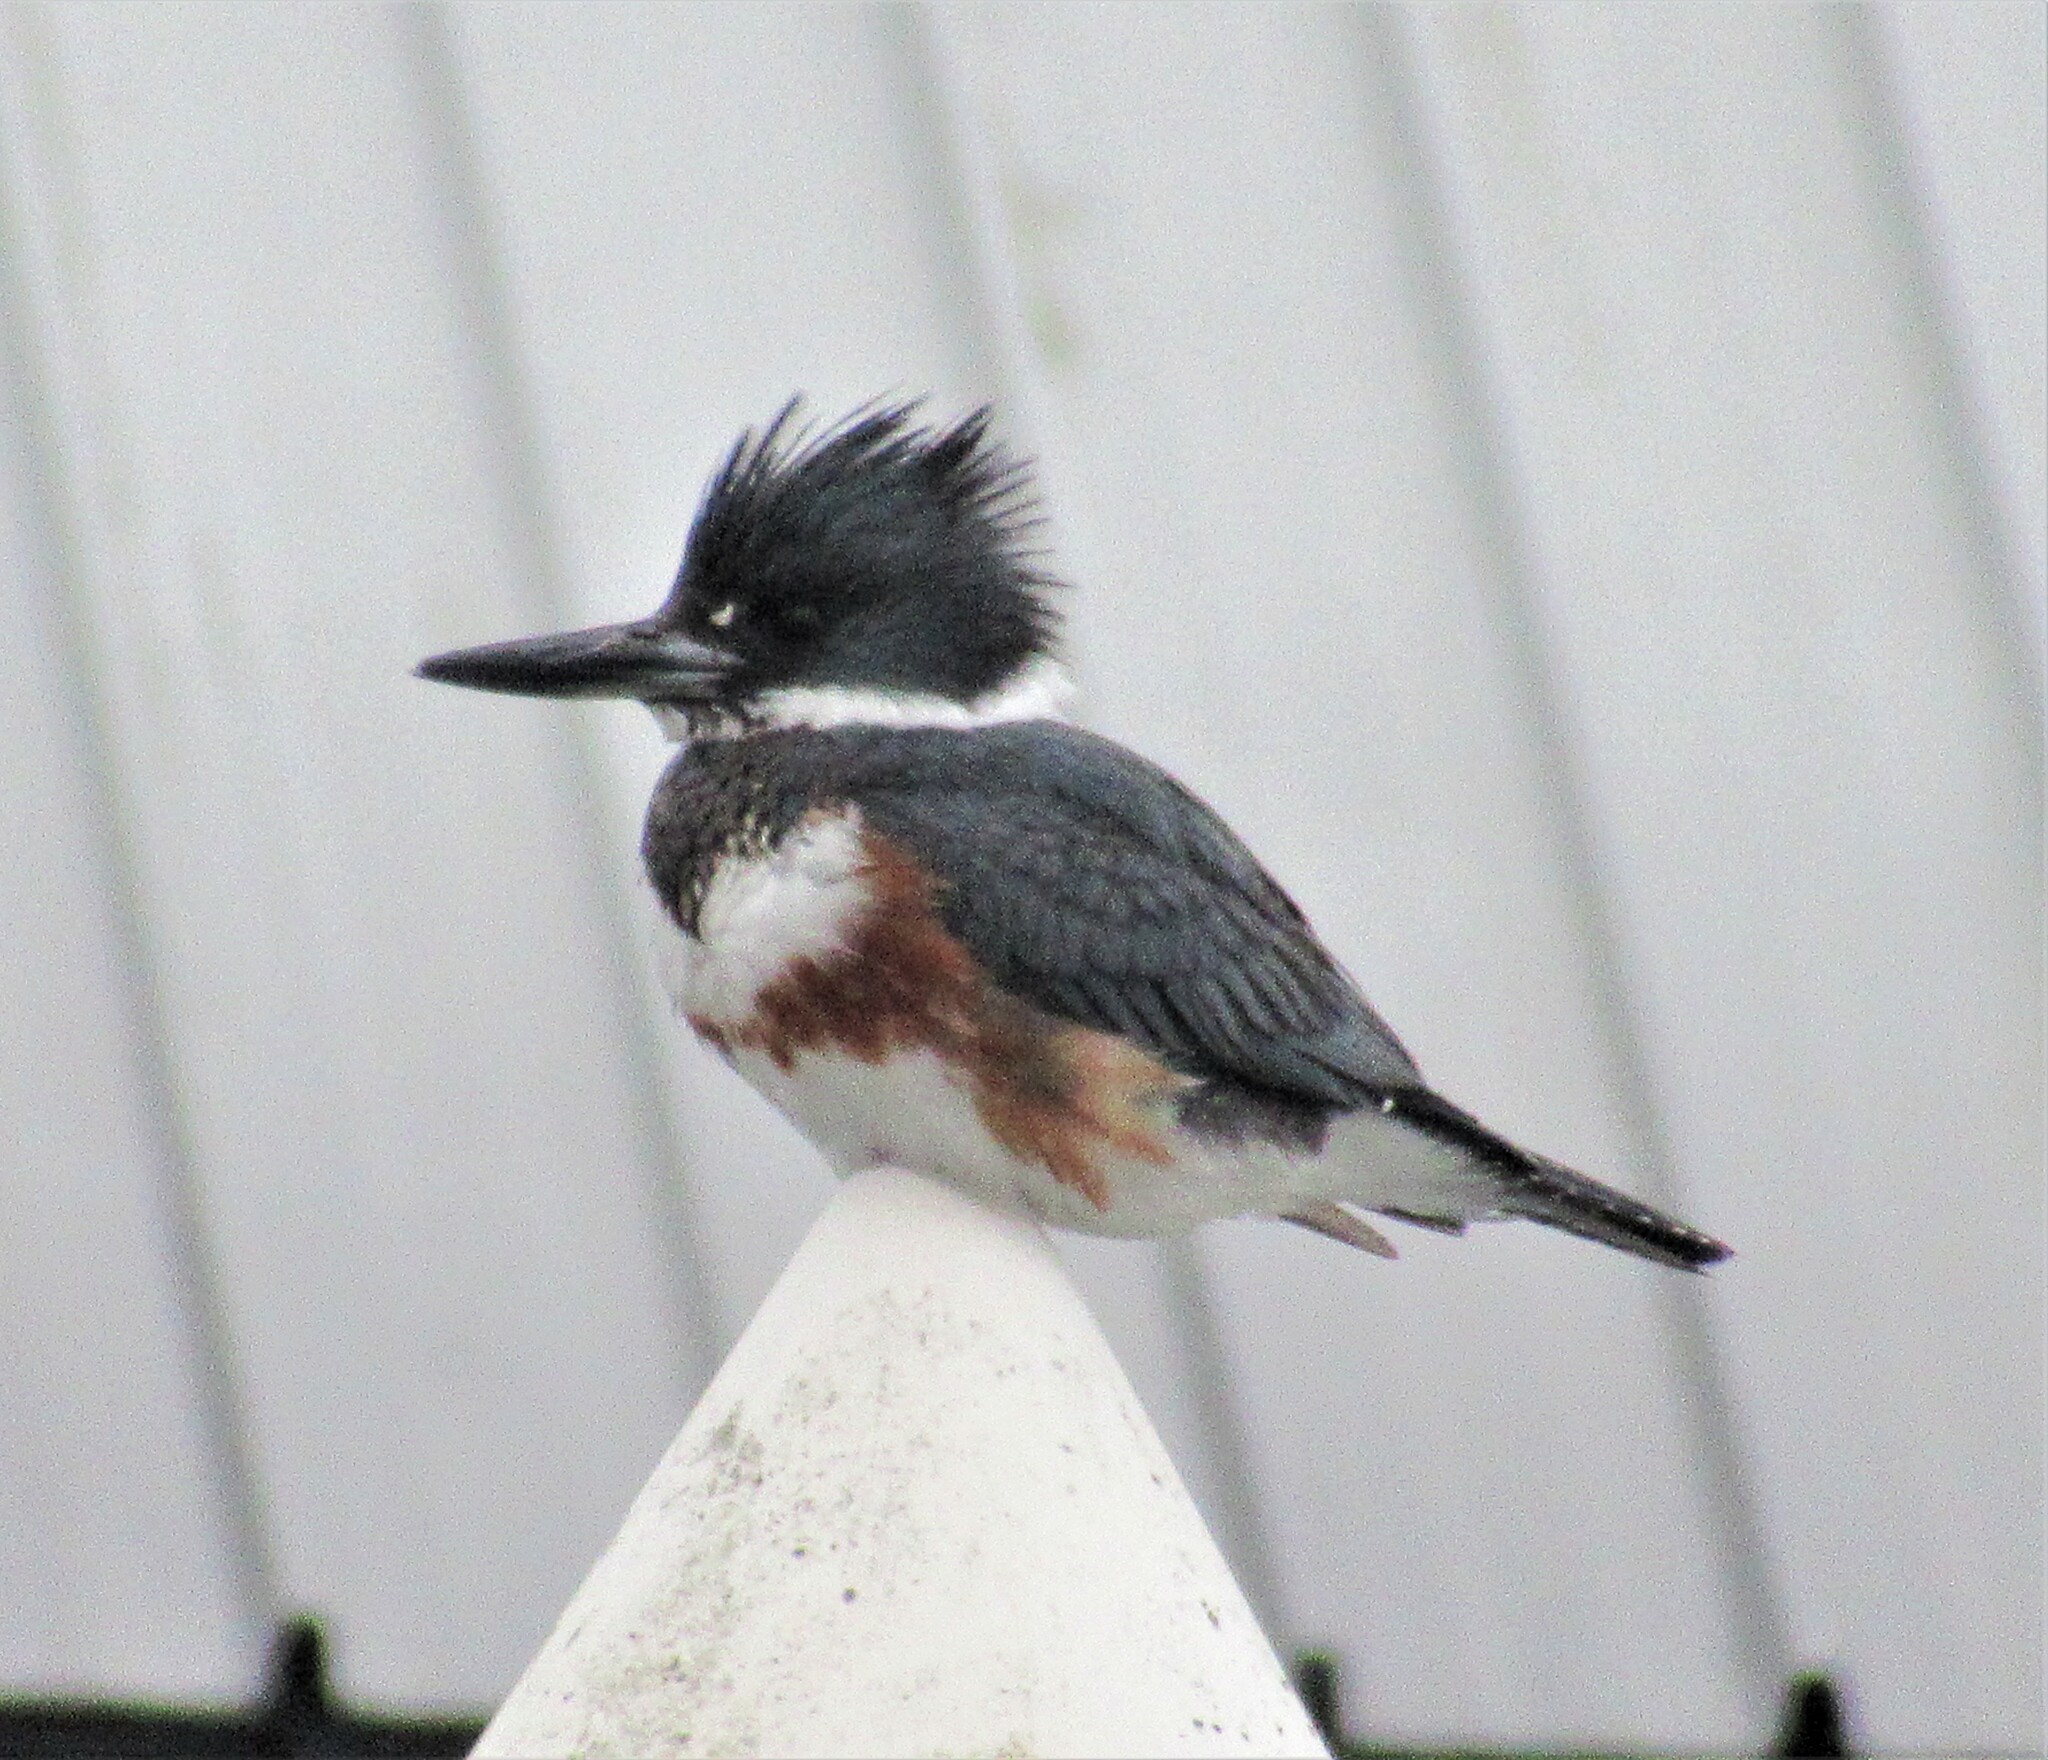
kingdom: Animalia
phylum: Chordata
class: Aves
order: Coraciiformes
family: Alcedinidae
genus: Megaceryle
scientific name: Megaceryle alcyon
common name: Belted kingfisher
